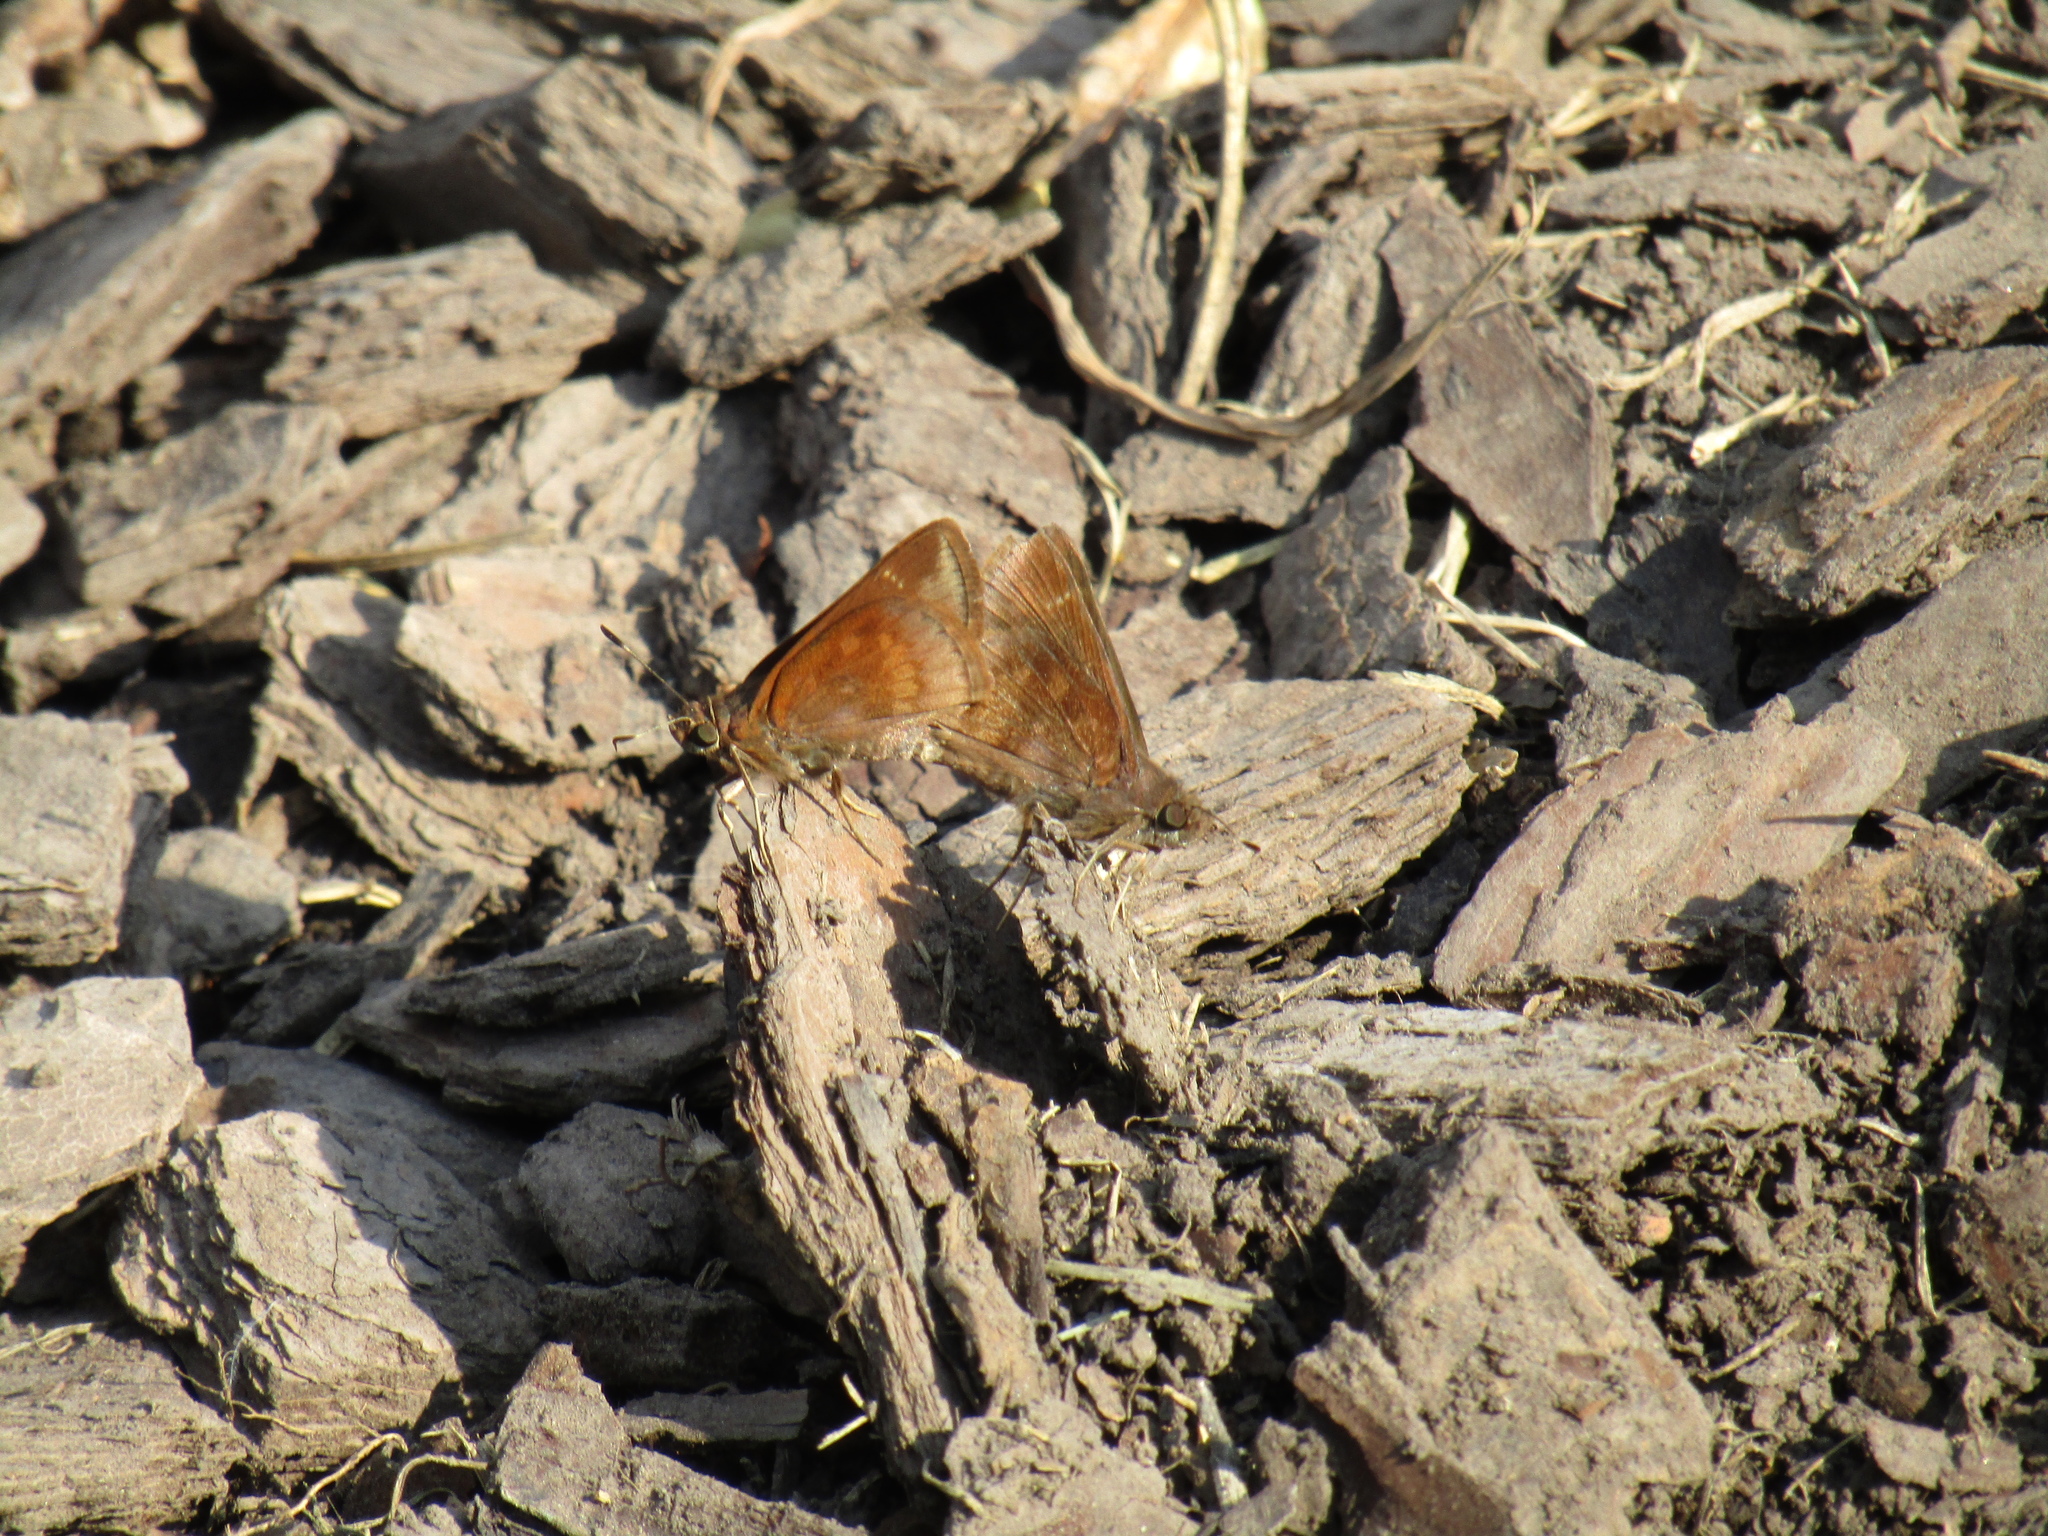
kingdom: Animalia
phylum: Arthropoda
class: Insecta
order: Lepidoptera
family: Hesperiidae
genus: Quinta
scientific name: Quinta cannae
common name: Canna skipper
